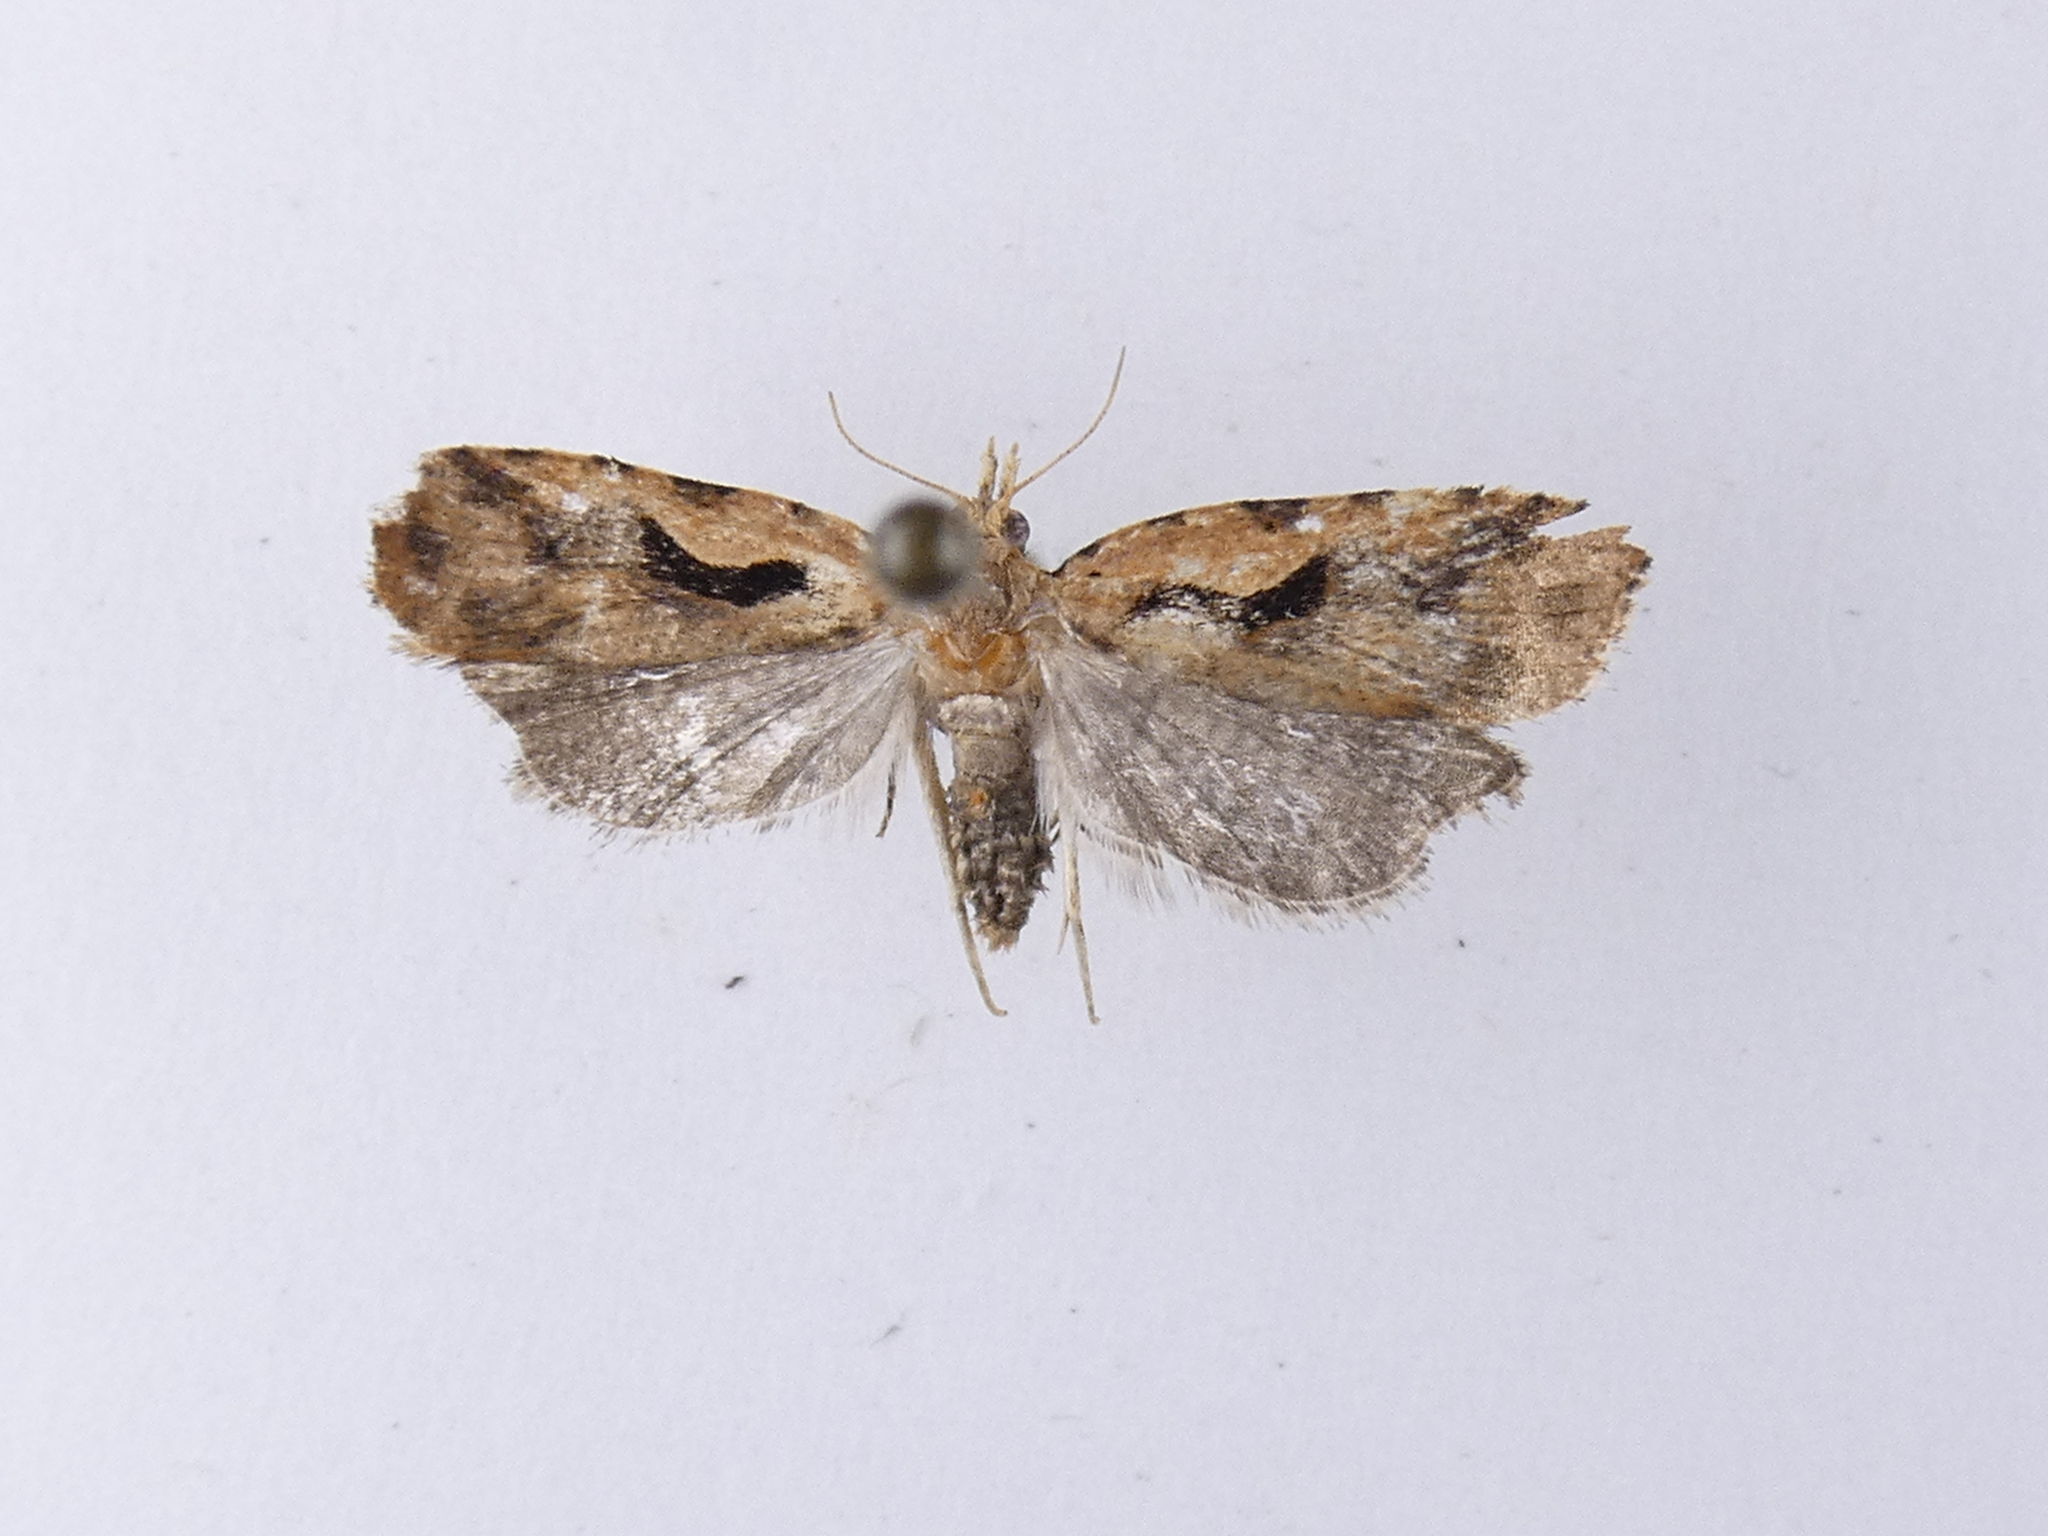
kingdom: Animalia
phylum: Arthropoda
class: Insecta
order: Lepidoptera
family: Tortricidae
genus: Cnephasia
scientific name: Cnephasia jactatana
